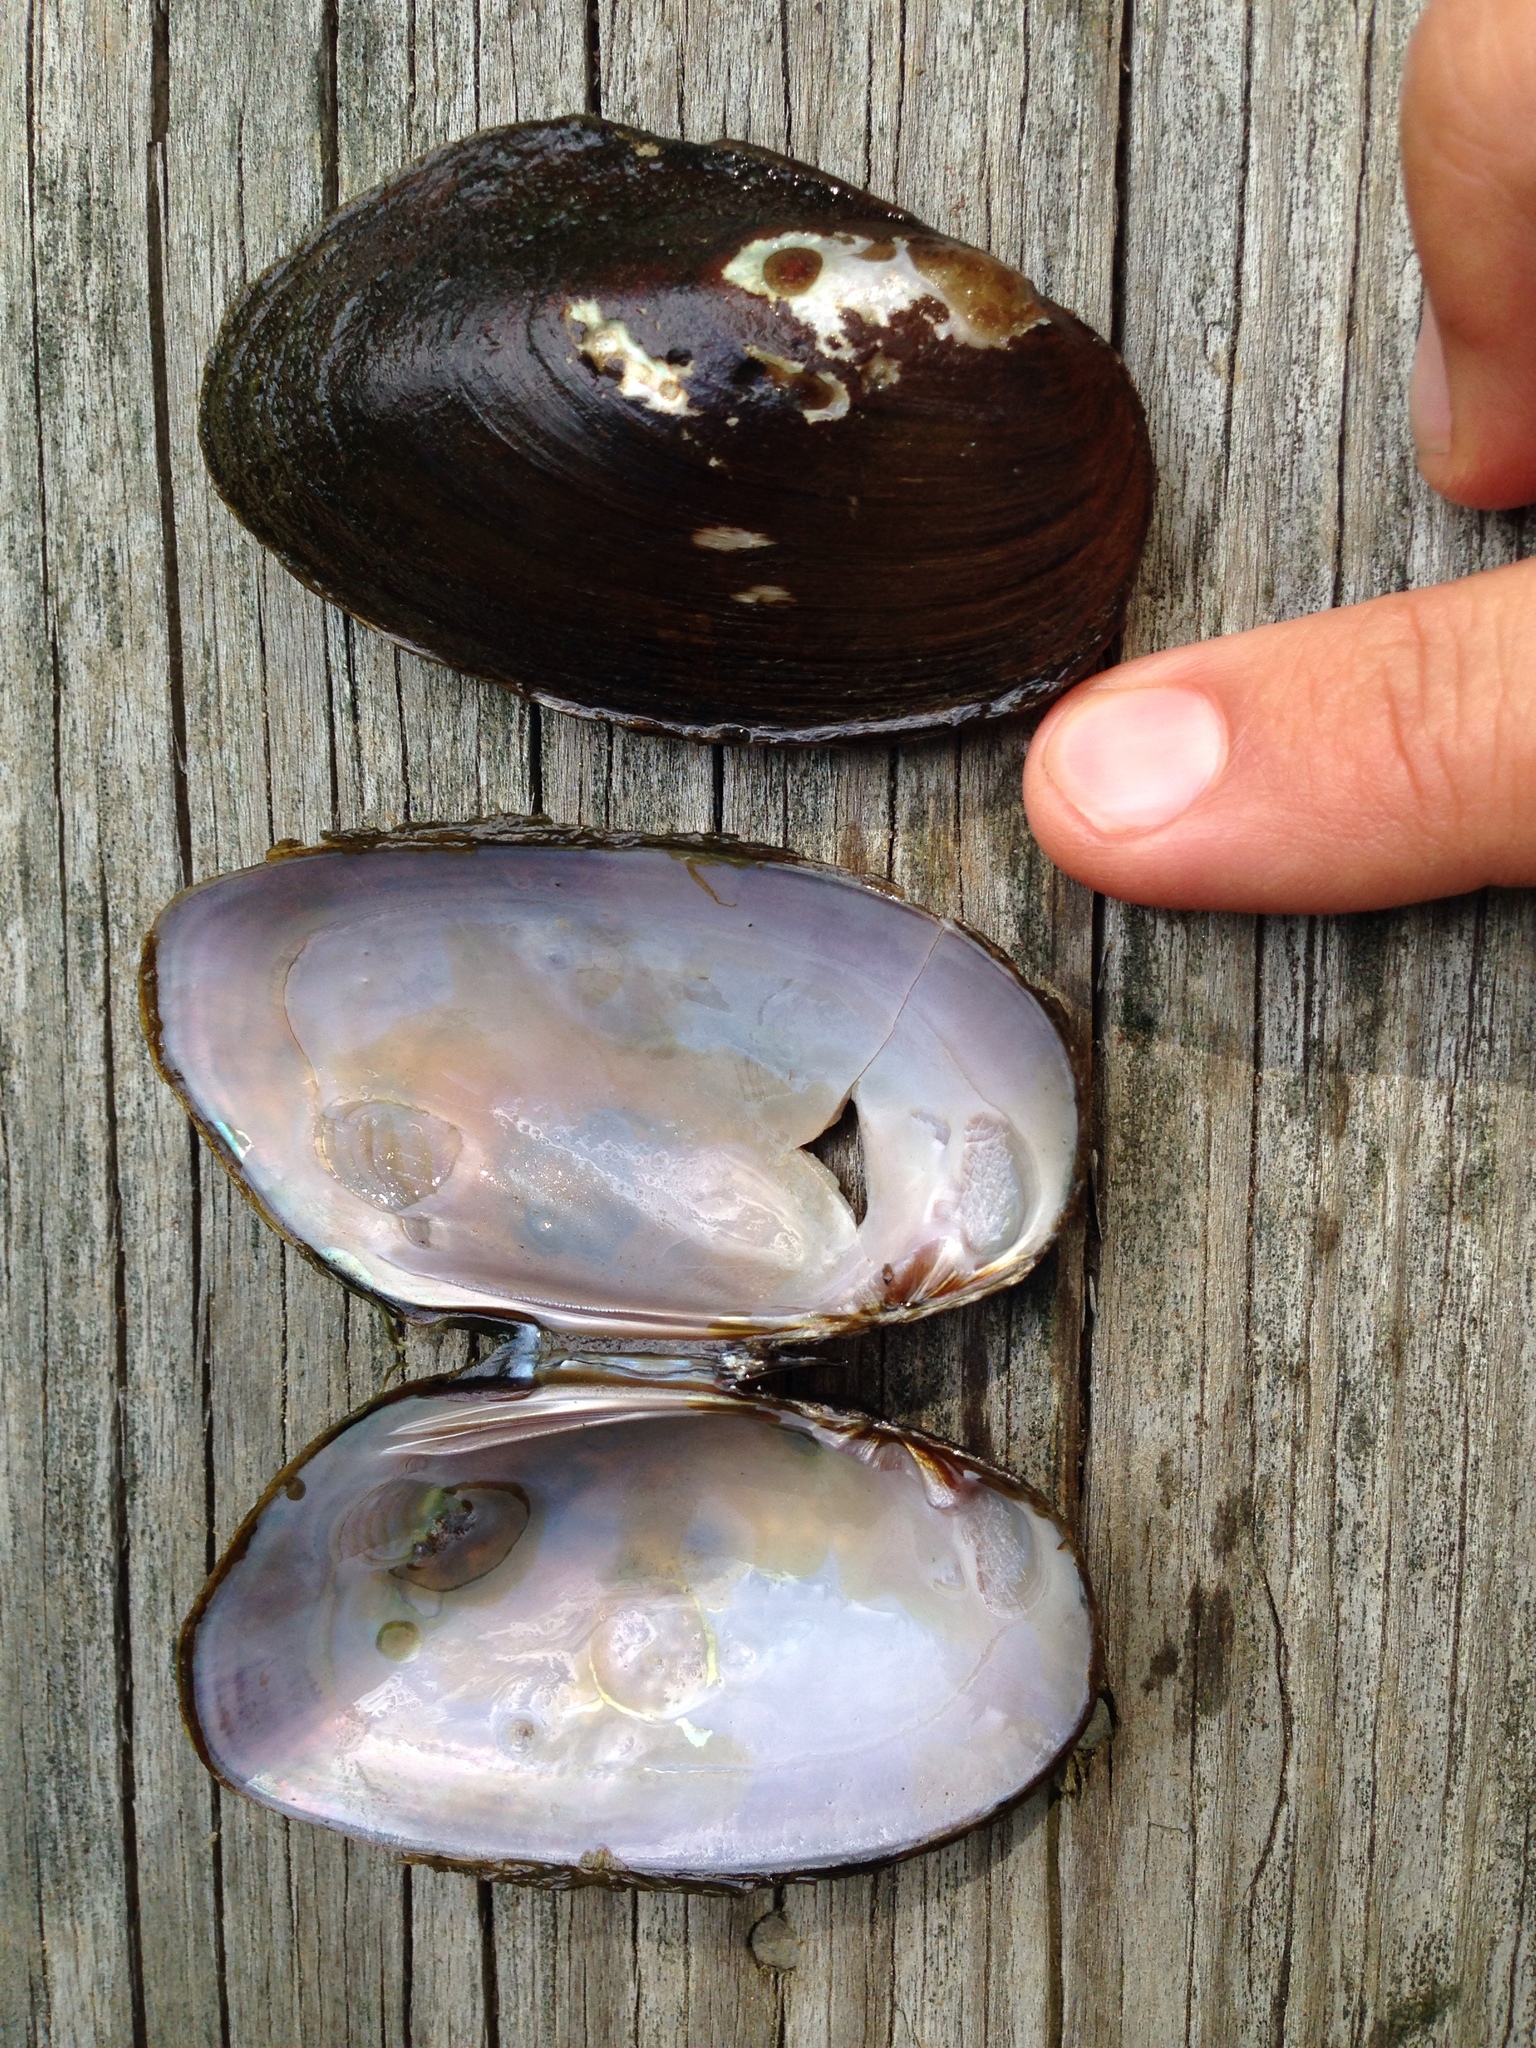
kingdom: Animalia
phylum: Mollusca
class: Bivalvia
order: Unionida
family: Unionidae
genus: Elliptio
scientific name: Elliptio complanata
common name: Eastern elliptio
